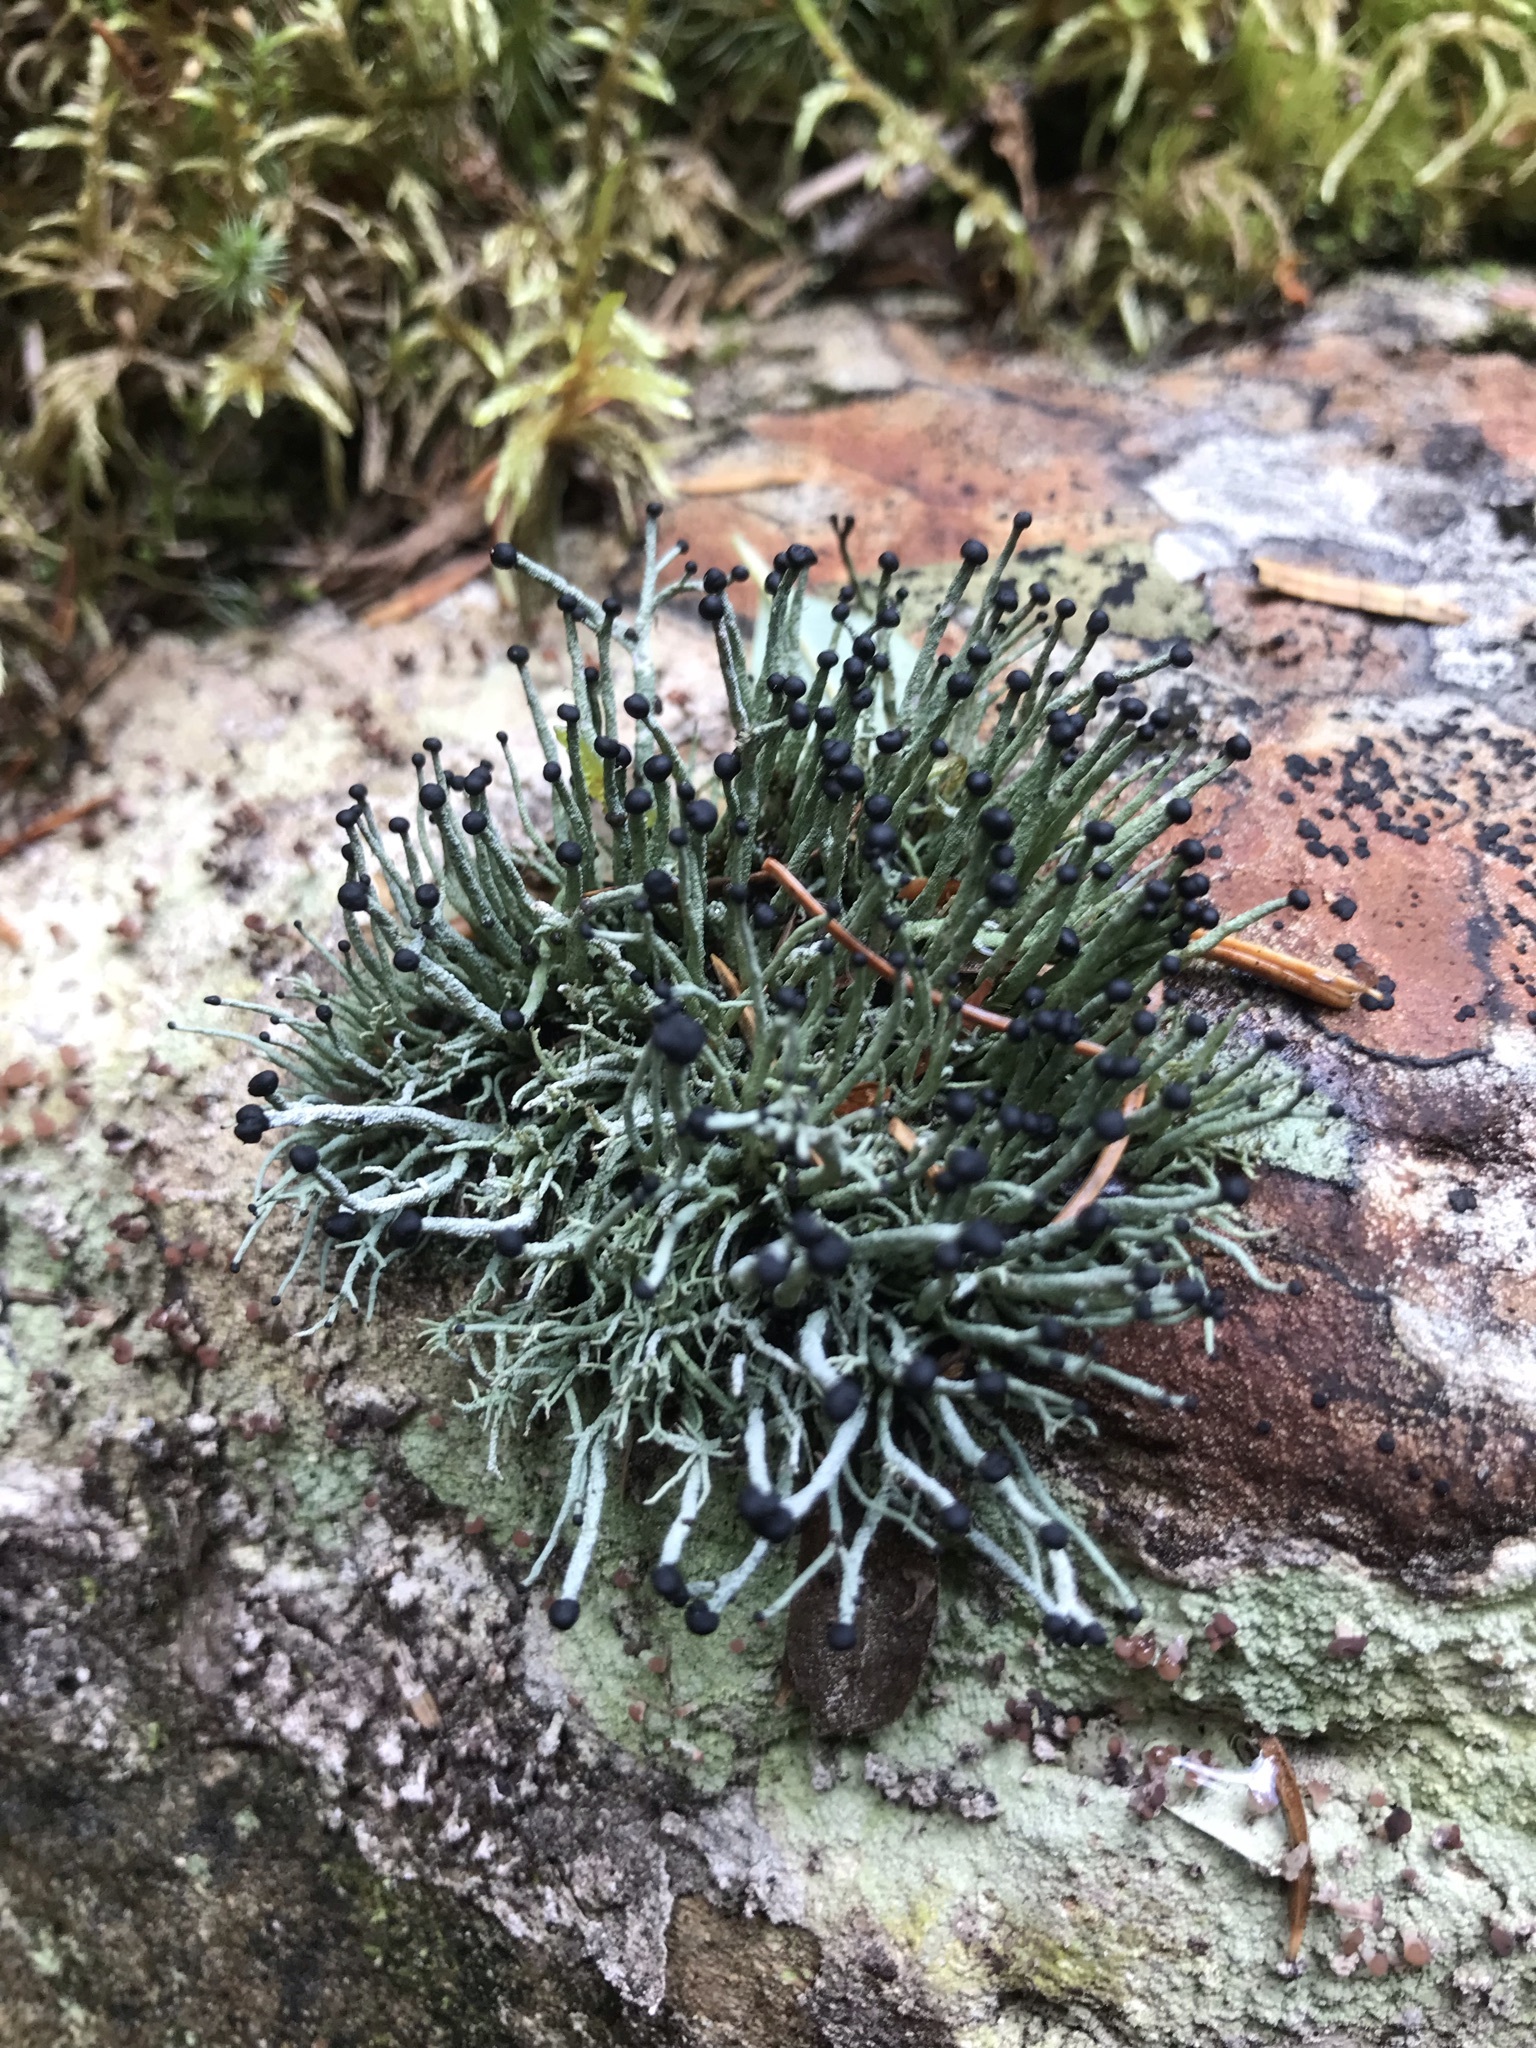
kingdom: Fungi
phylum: Ascomycota
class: Lecanoromycetes
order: Lecanorales
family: Cladoniaceae
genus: Pilophorus
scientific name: Pilophorus acicularis
